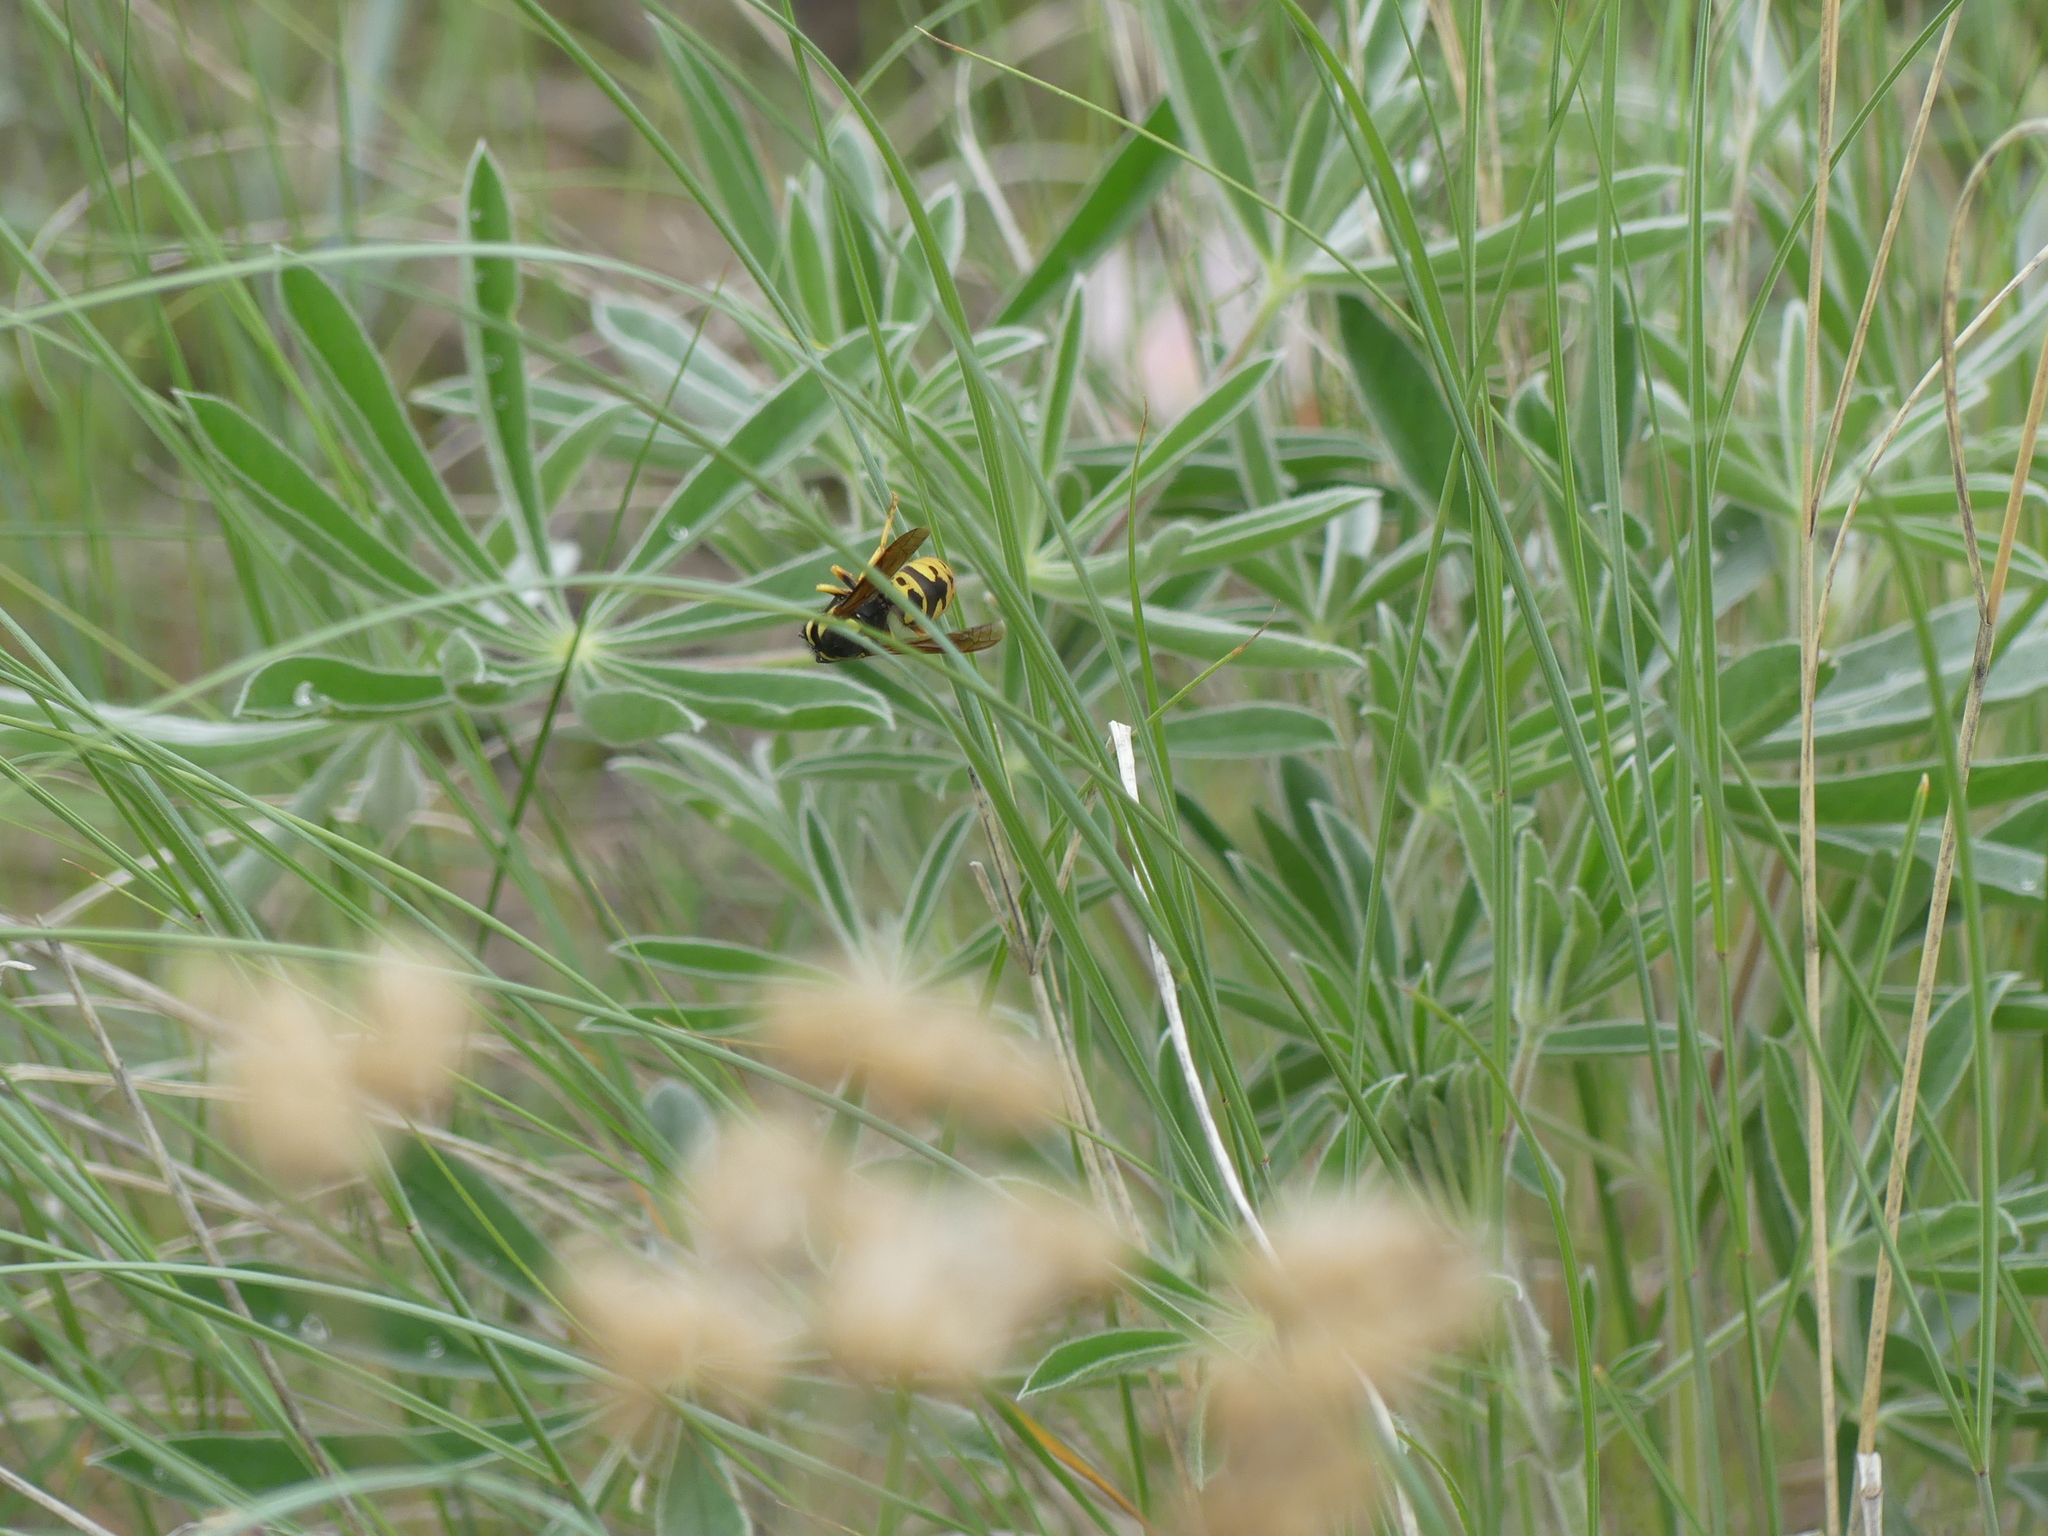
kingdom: Animalia
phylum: Arthropoda
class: Insecta
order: Hymenoptera
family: Vespidae
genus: Vespula
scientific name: Vespula atropilosa
